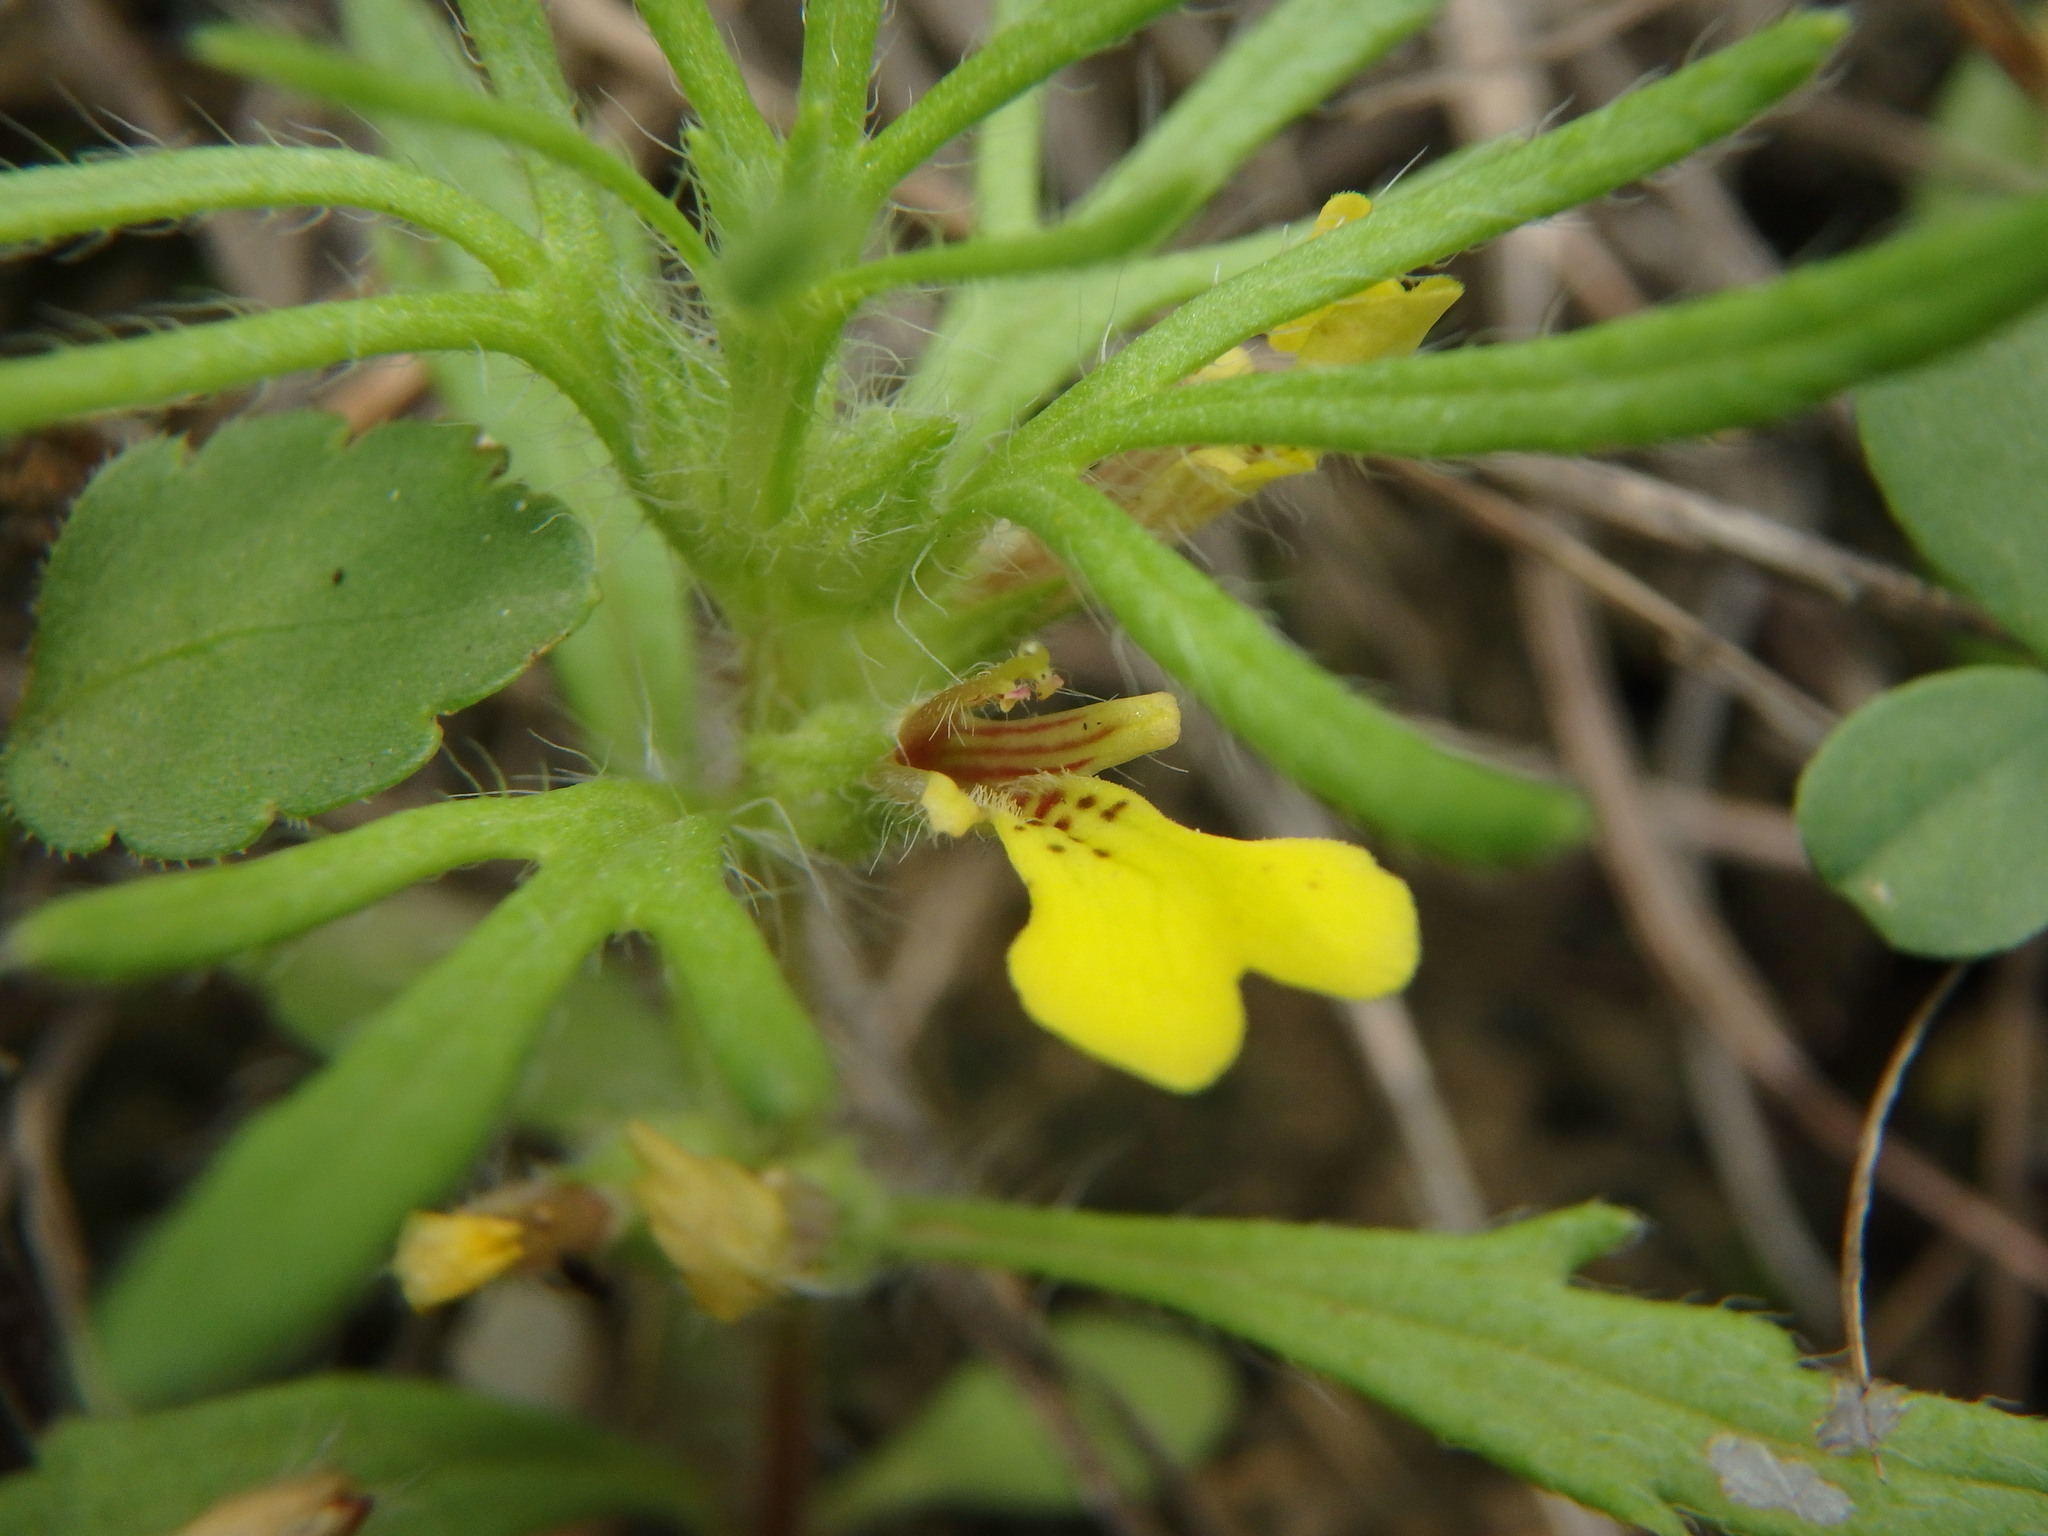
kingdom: Plantae
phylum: Tracheophyta
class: Magnoliopsida
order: Lamiales
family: Lamiaceae
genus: Ajuga
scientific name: Ajuga chamaepitys
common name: Ground-pine
